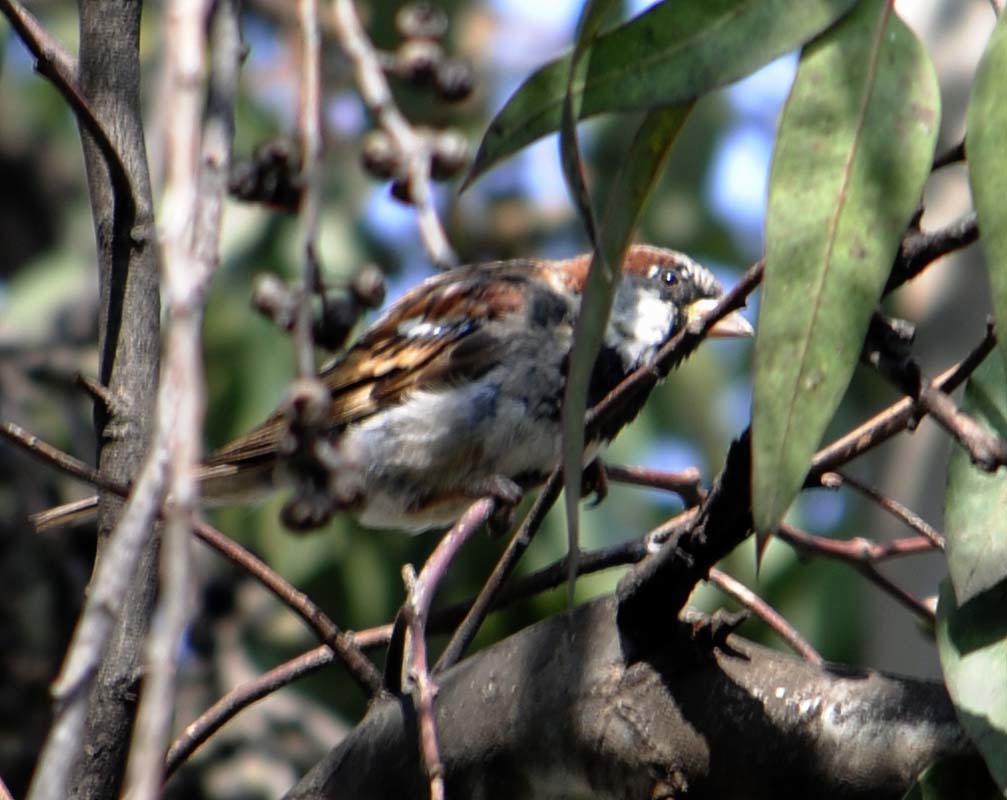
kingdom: Animalia
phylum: Chordata
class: Aves
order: Passeriformes
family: Passeridae
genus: Passer
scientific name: Passer domesticus
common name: House sparrow
